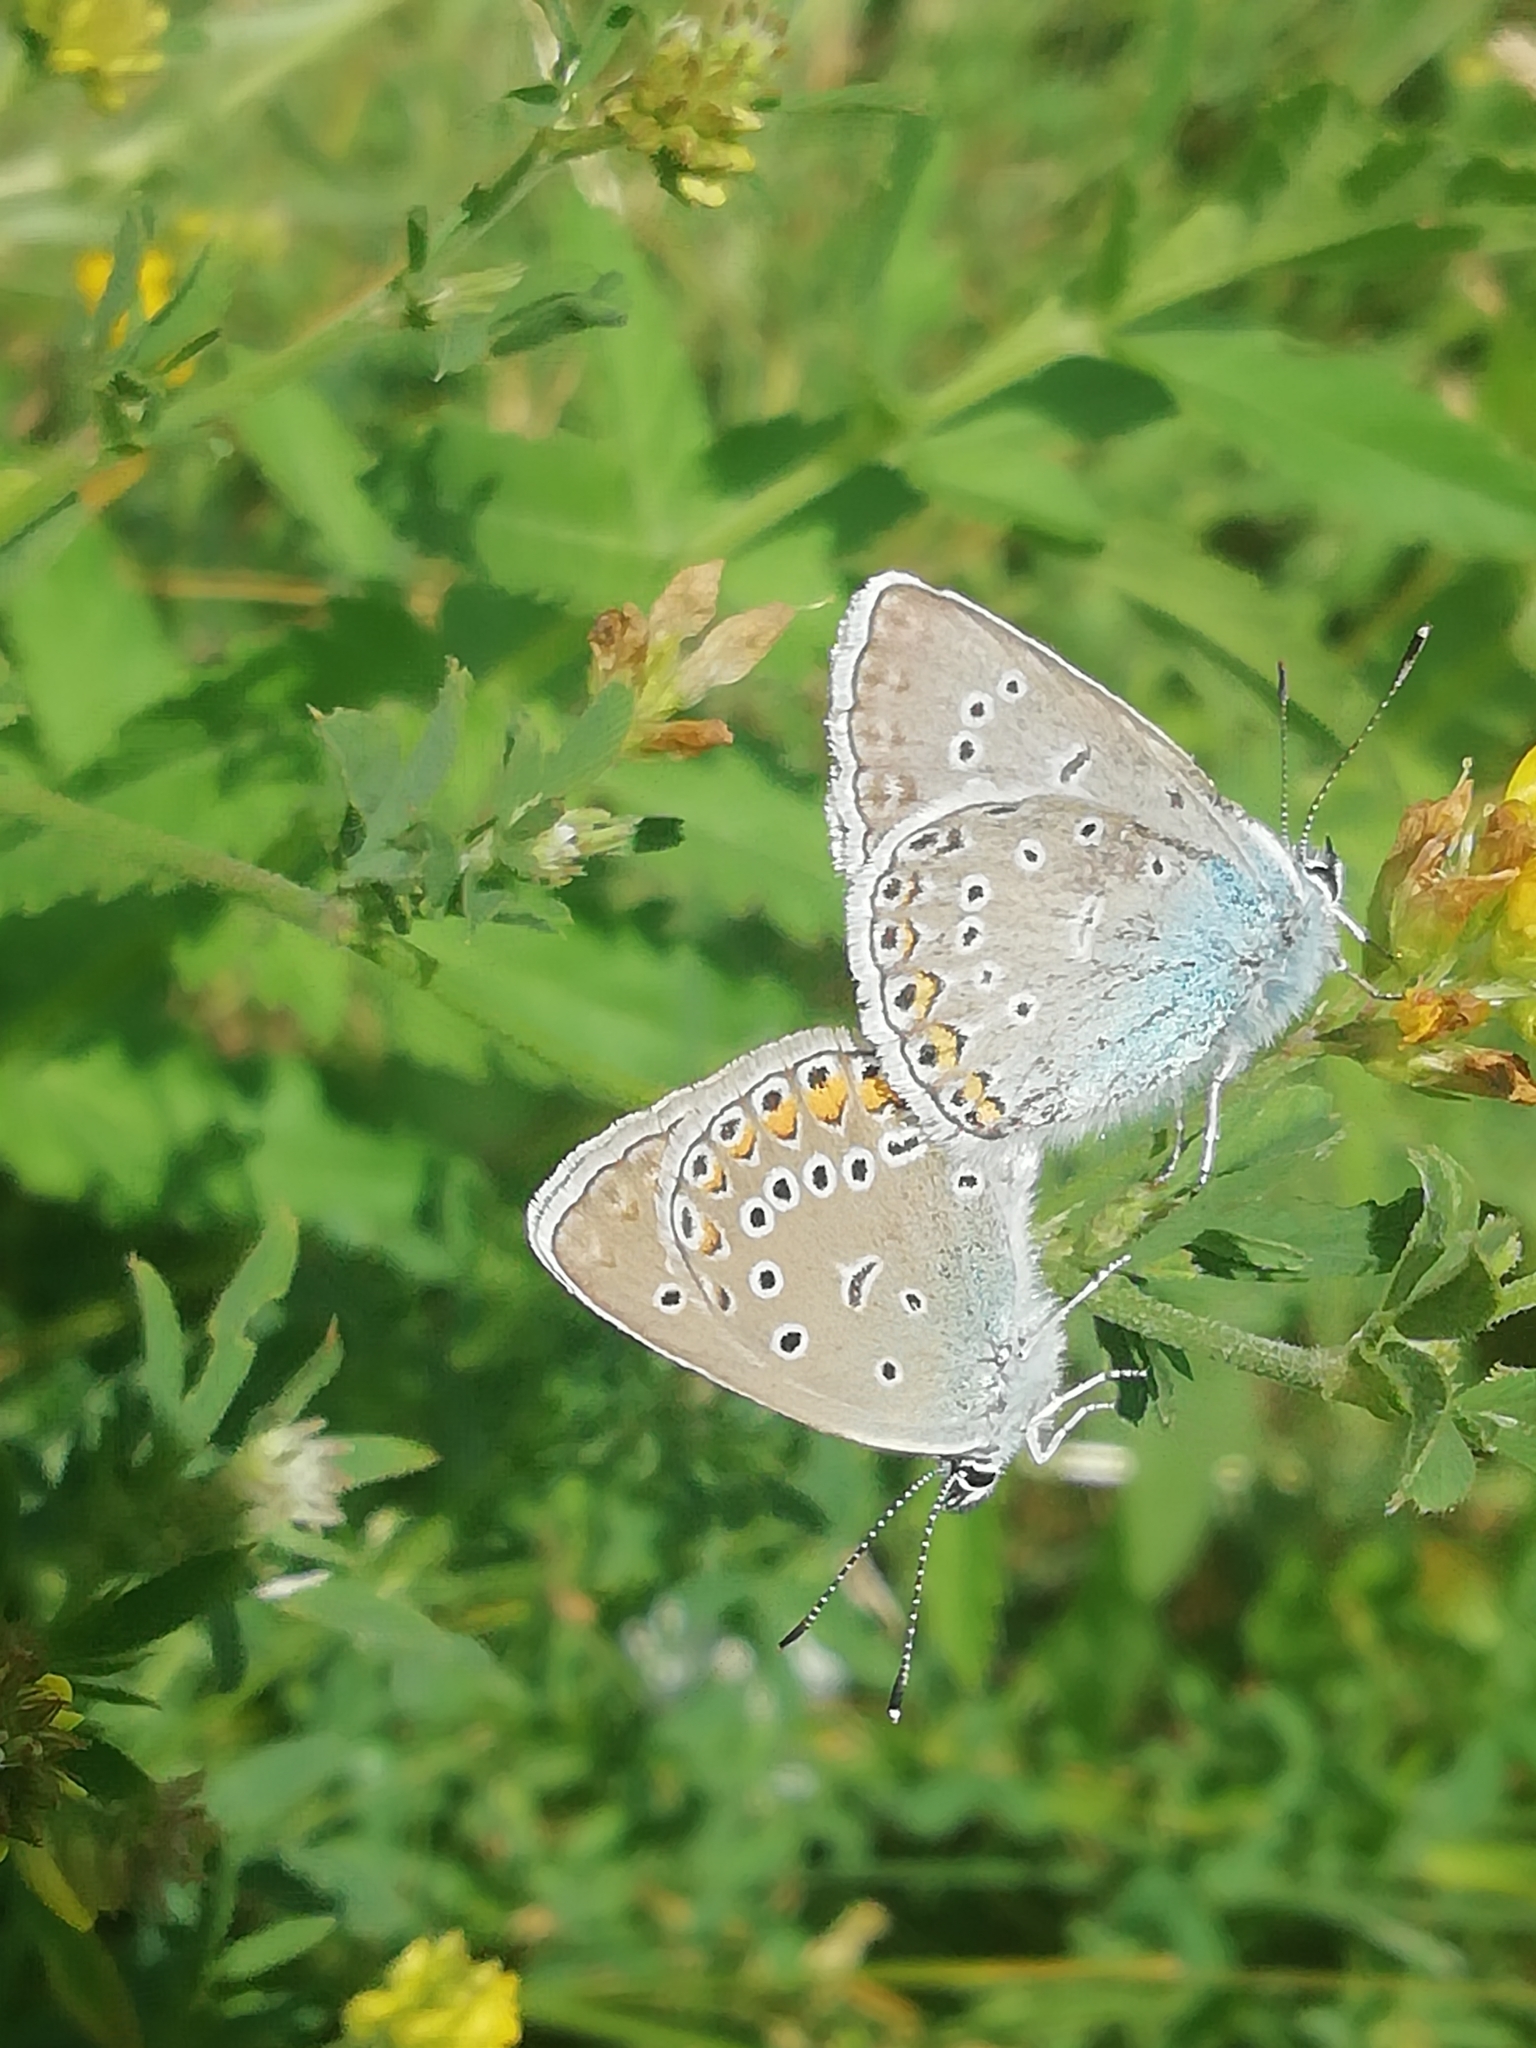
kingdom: Animalia
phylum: Arthropoda
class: Insecta
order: Lepidoptera
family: Lycaenidae
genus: Plebejus
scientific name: Plebejus amanda
